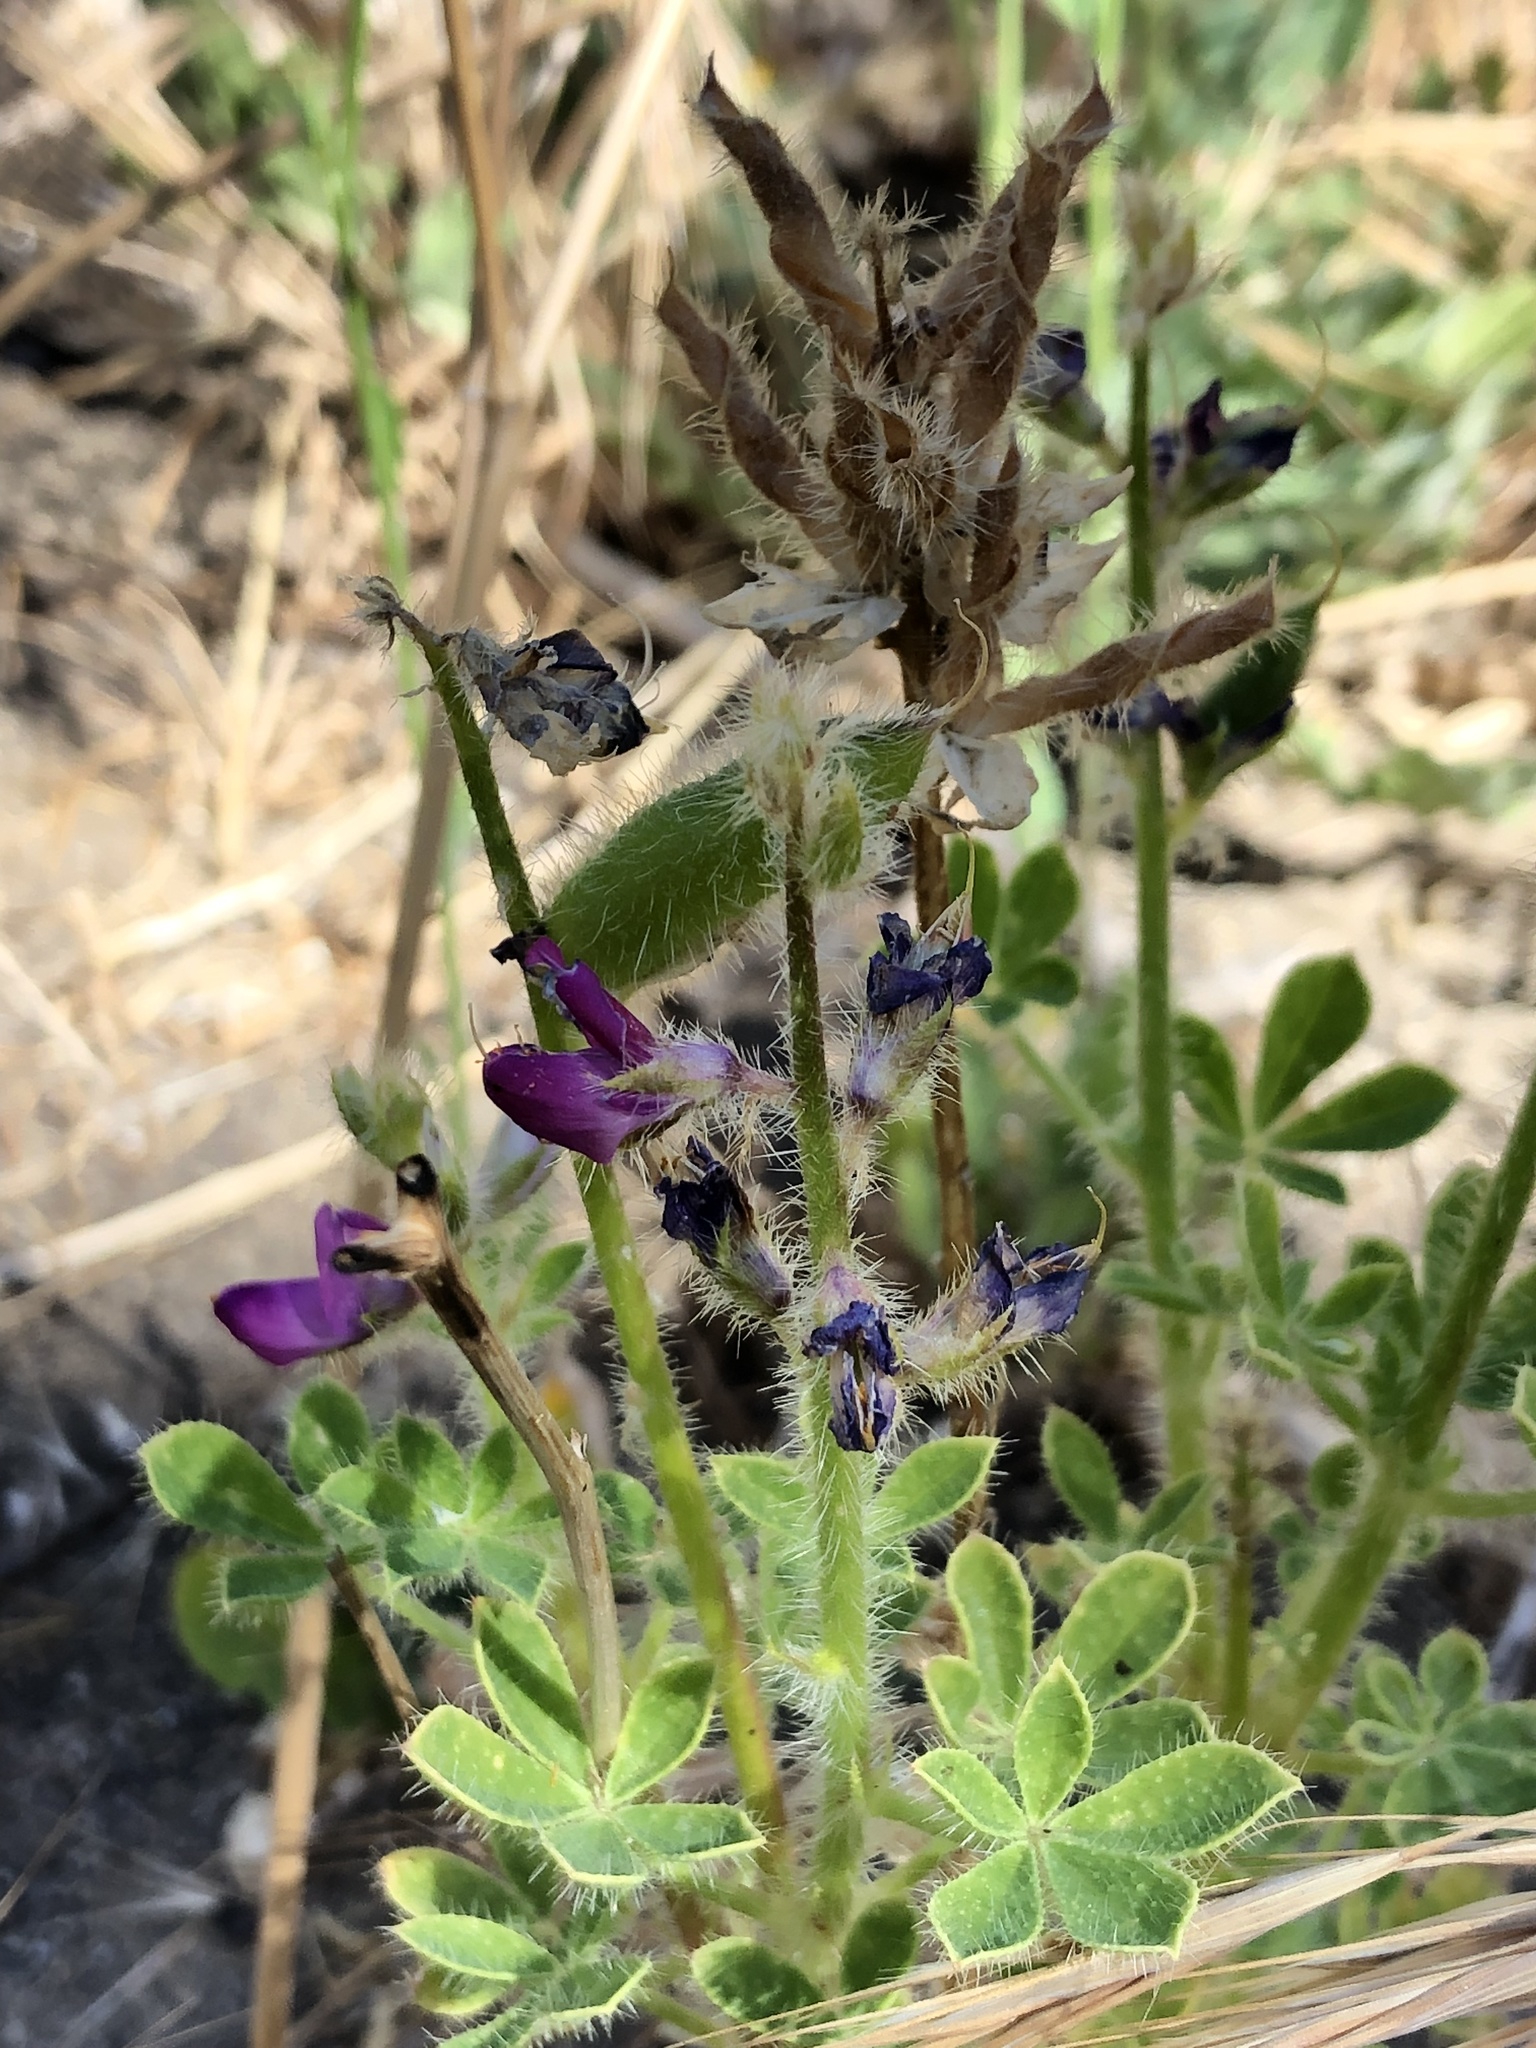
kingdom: Plantae
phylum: Tracheophyta
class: Magnoliopsida
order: Fabales
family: Fabaceae
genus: Lupinus
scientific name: Lupinus hirsutissimus
